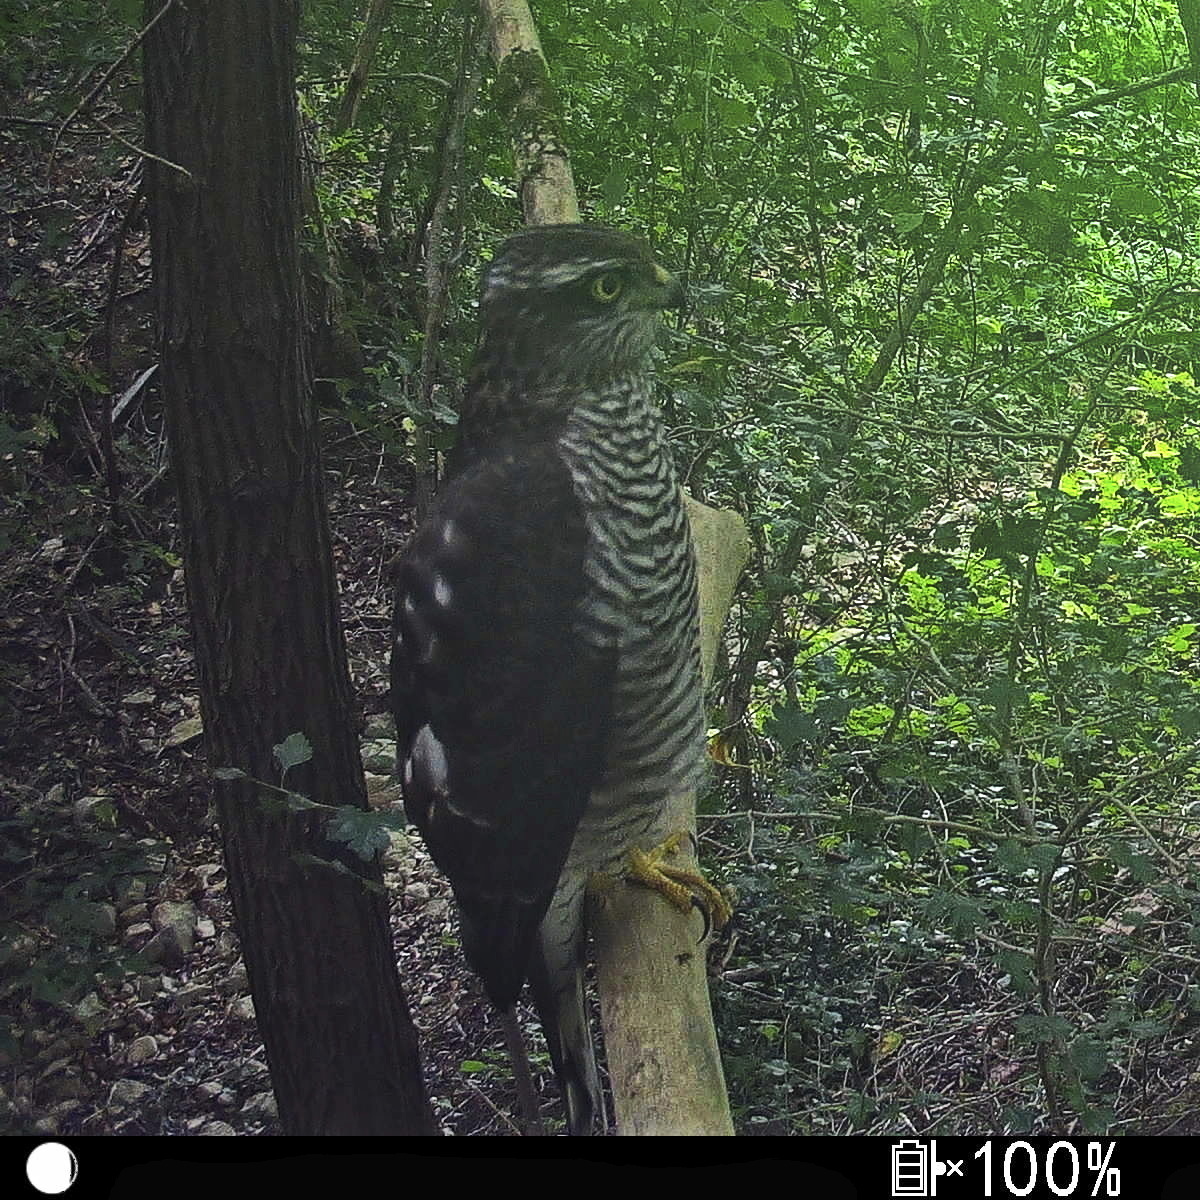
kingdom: Animalia
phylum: Chordata
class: Aves
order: Accipitriformes
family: Accipitridae
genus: Accipiter
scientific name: Accipiter nisus
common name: Eurasian sparrowhawk
